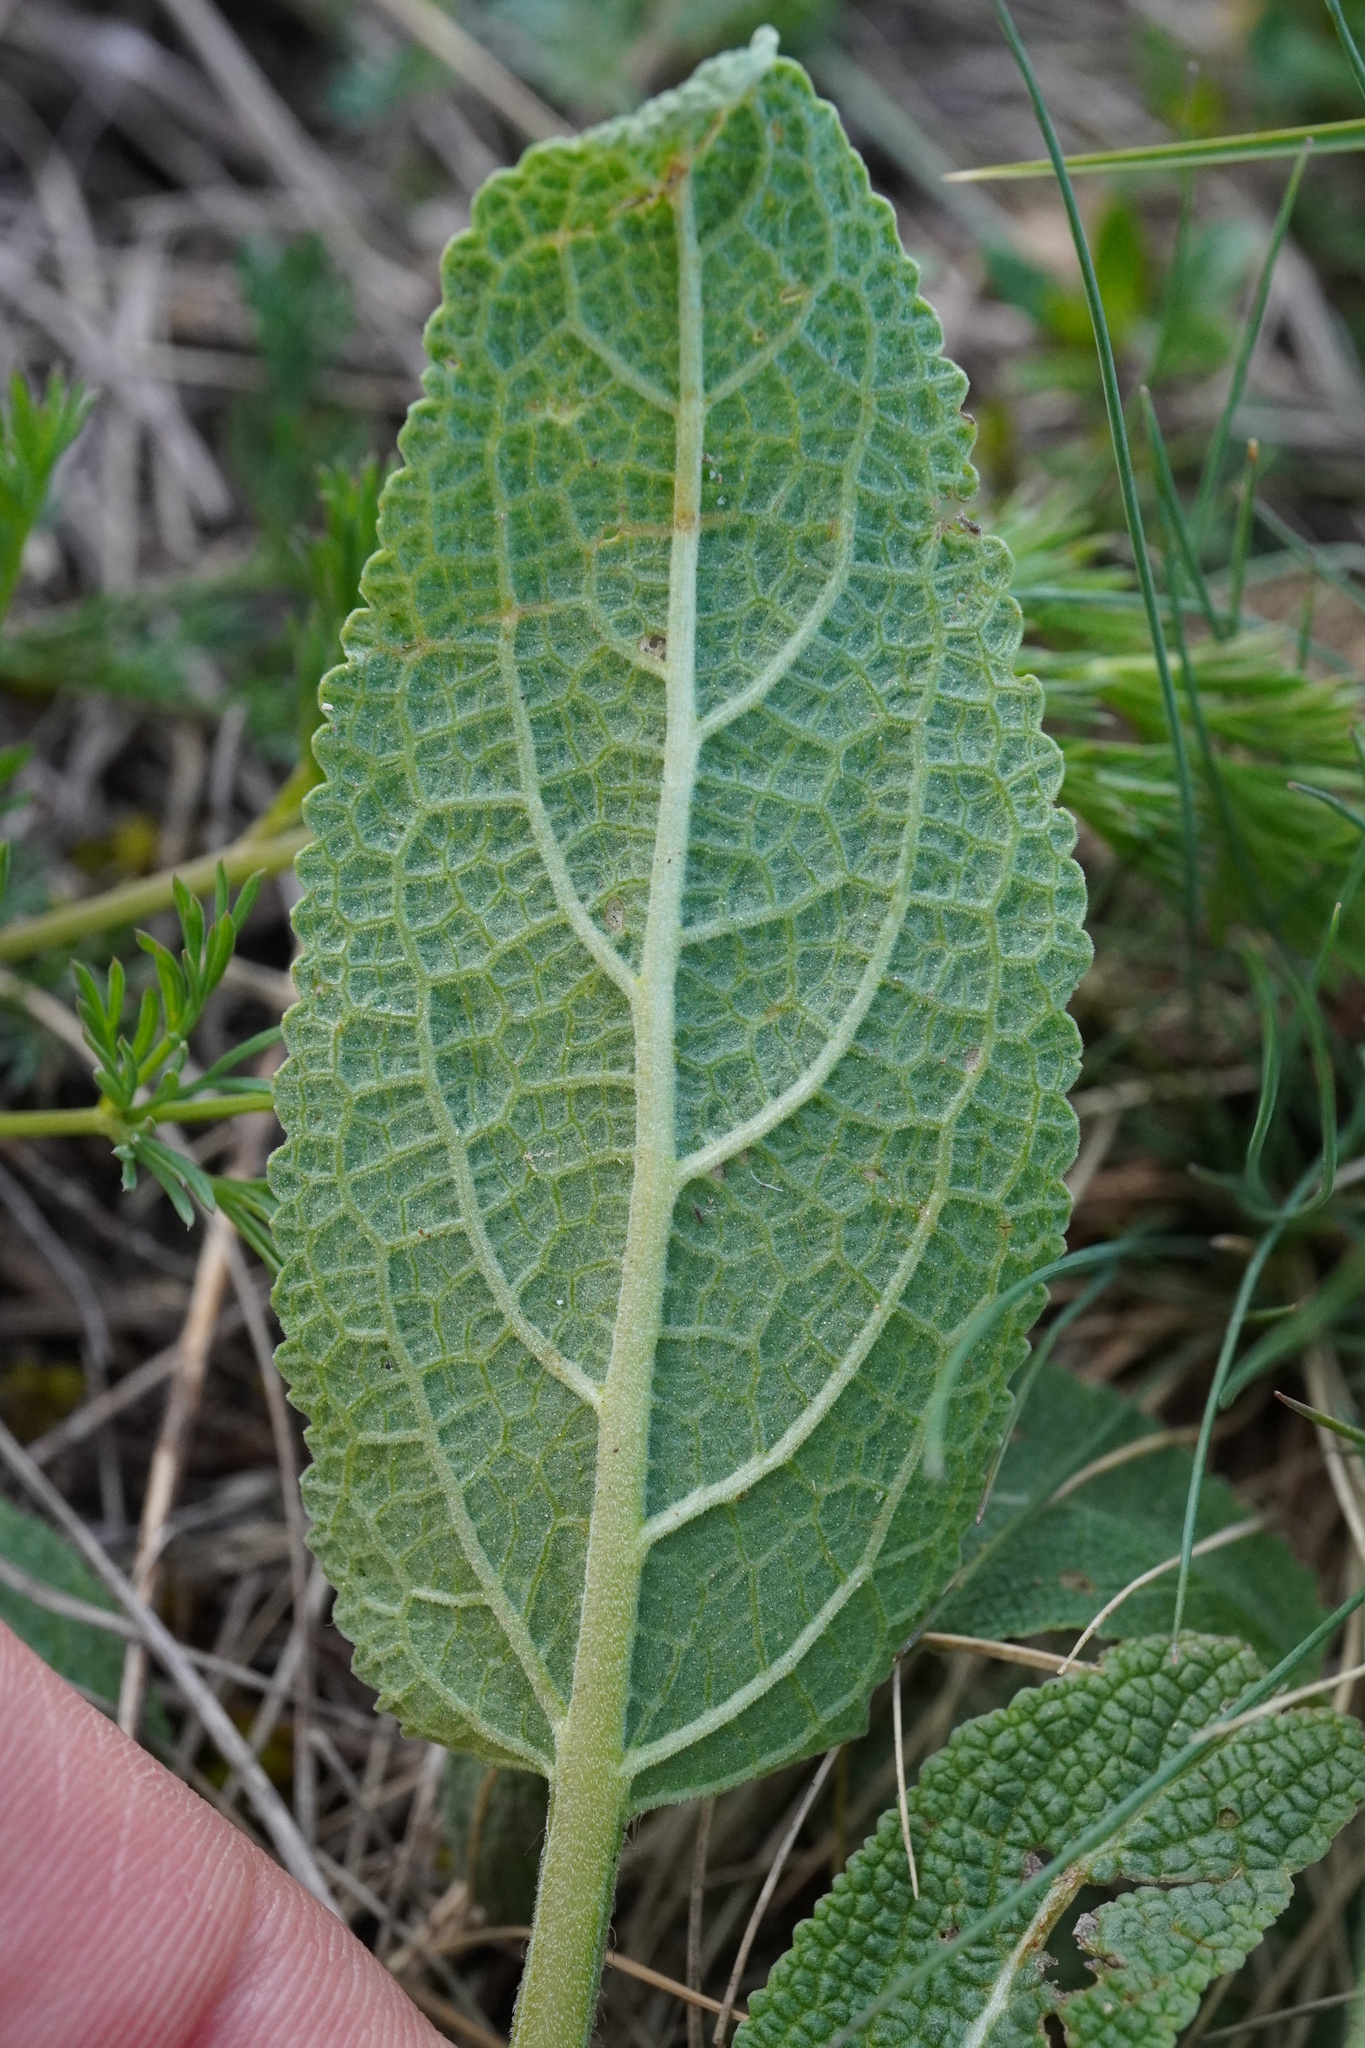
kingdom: Plantae
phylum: Tracheophyta
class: Magnoliopsida
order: Lamiales
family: Lamiaceae
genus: Salvia
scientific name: Salvia nemorosa
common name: Balkan clary
